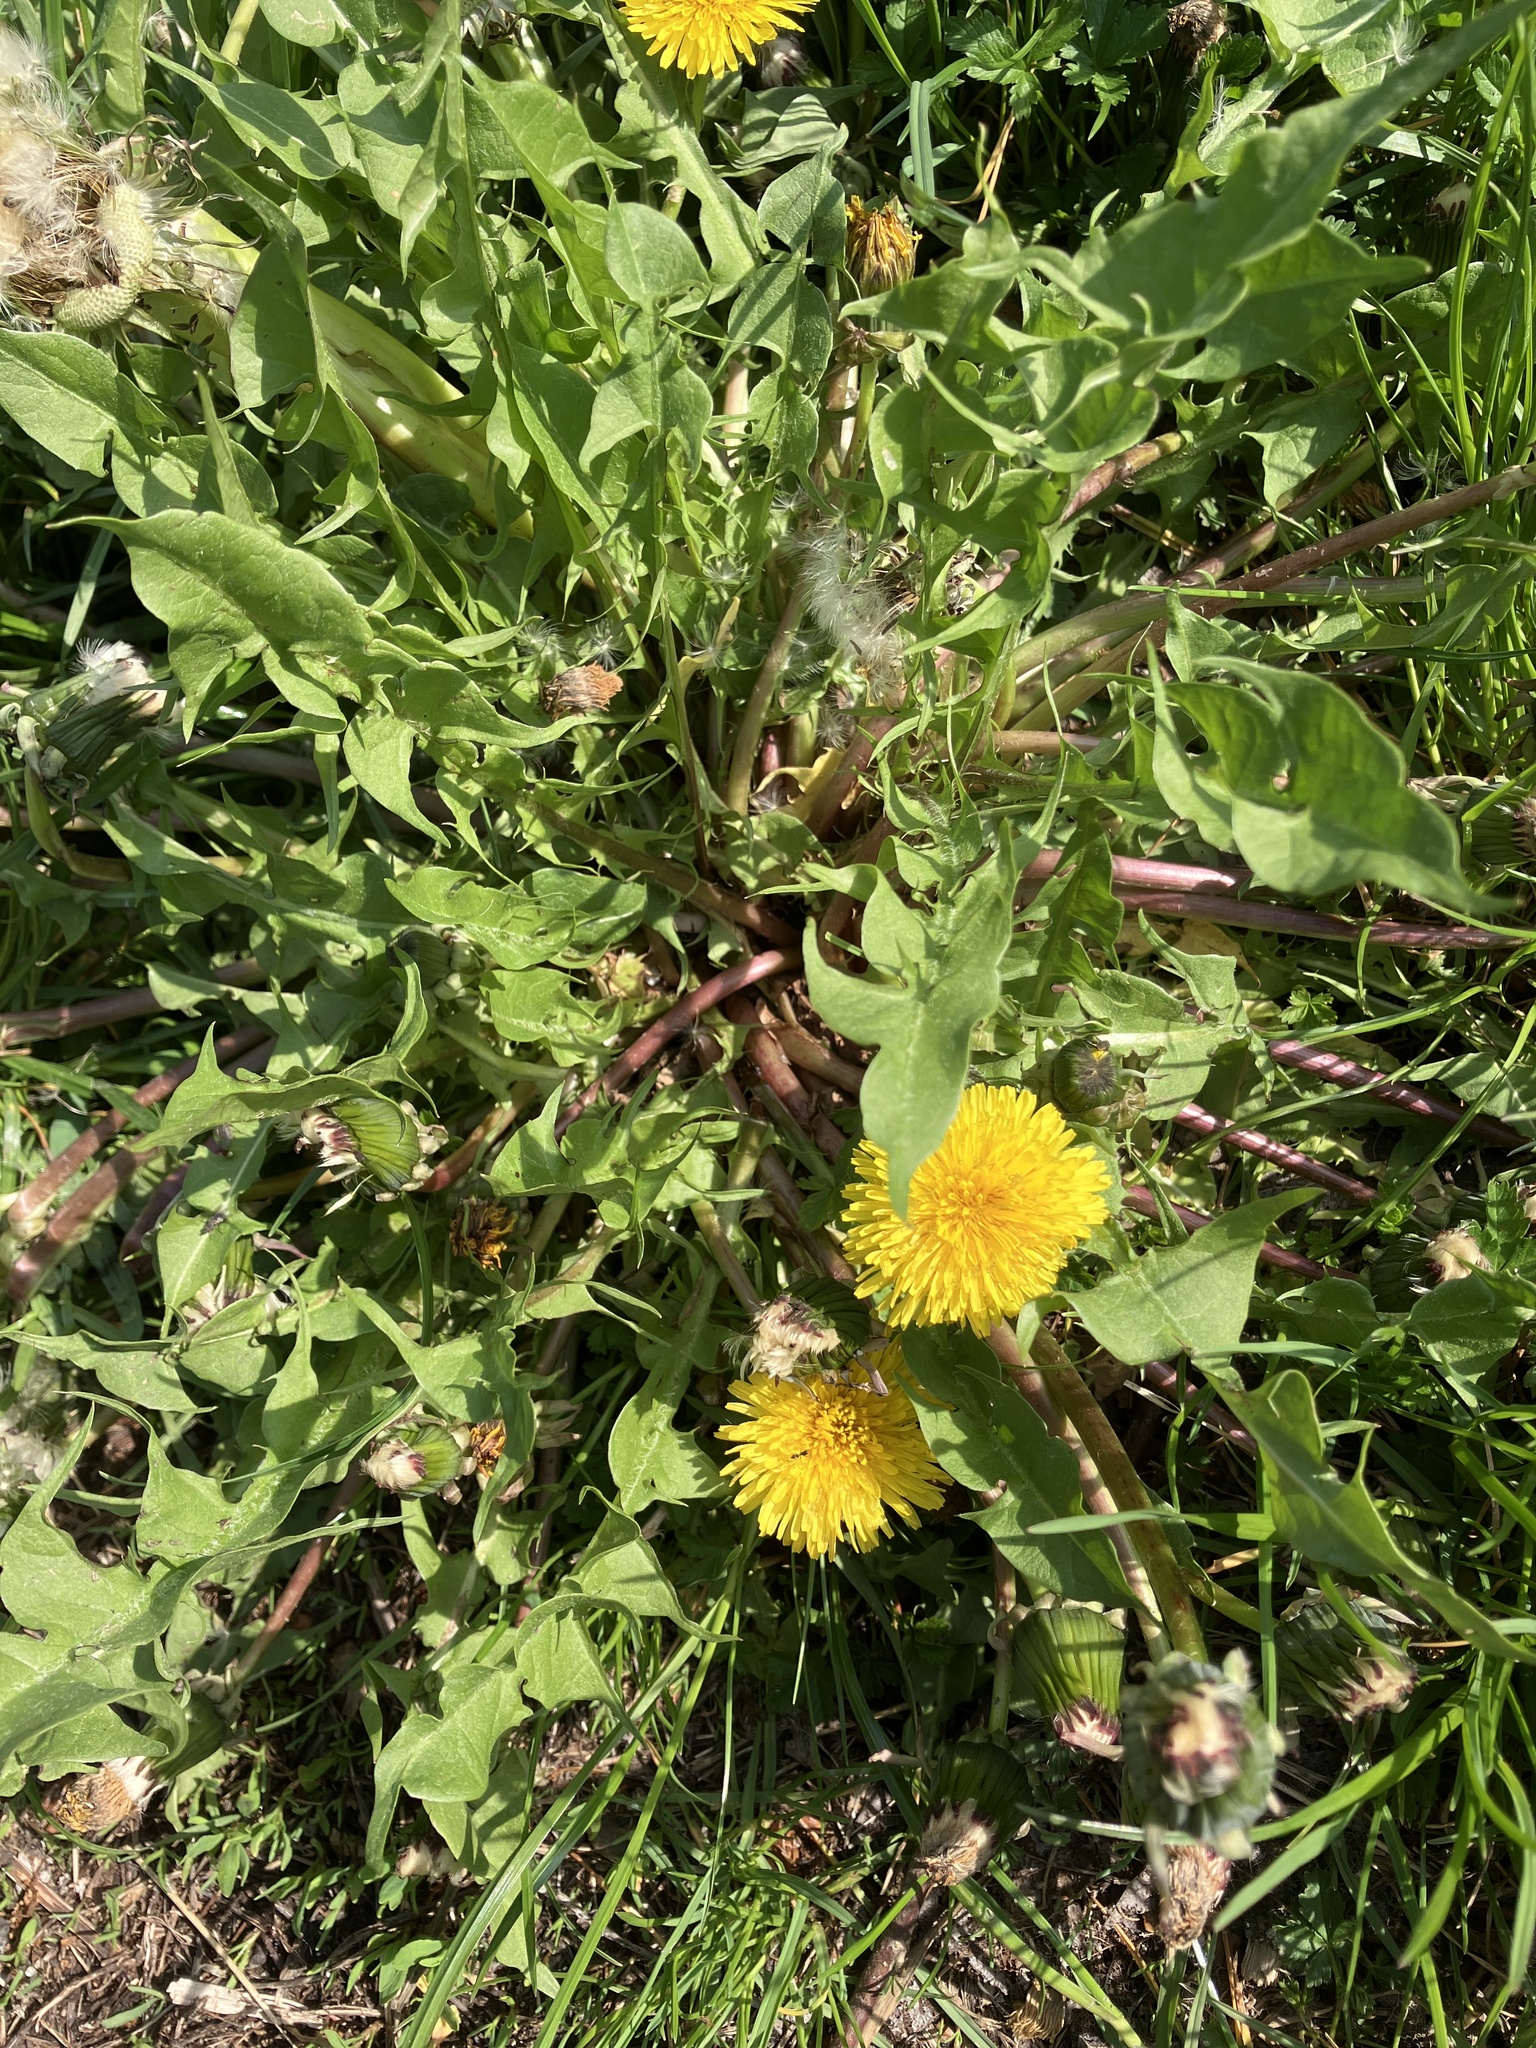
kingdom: Plantae
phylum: Tracheophyta
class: Magnoliopsida
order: Asterales
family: Asteraceae
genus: Taraxacum
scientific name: Taraxacum
